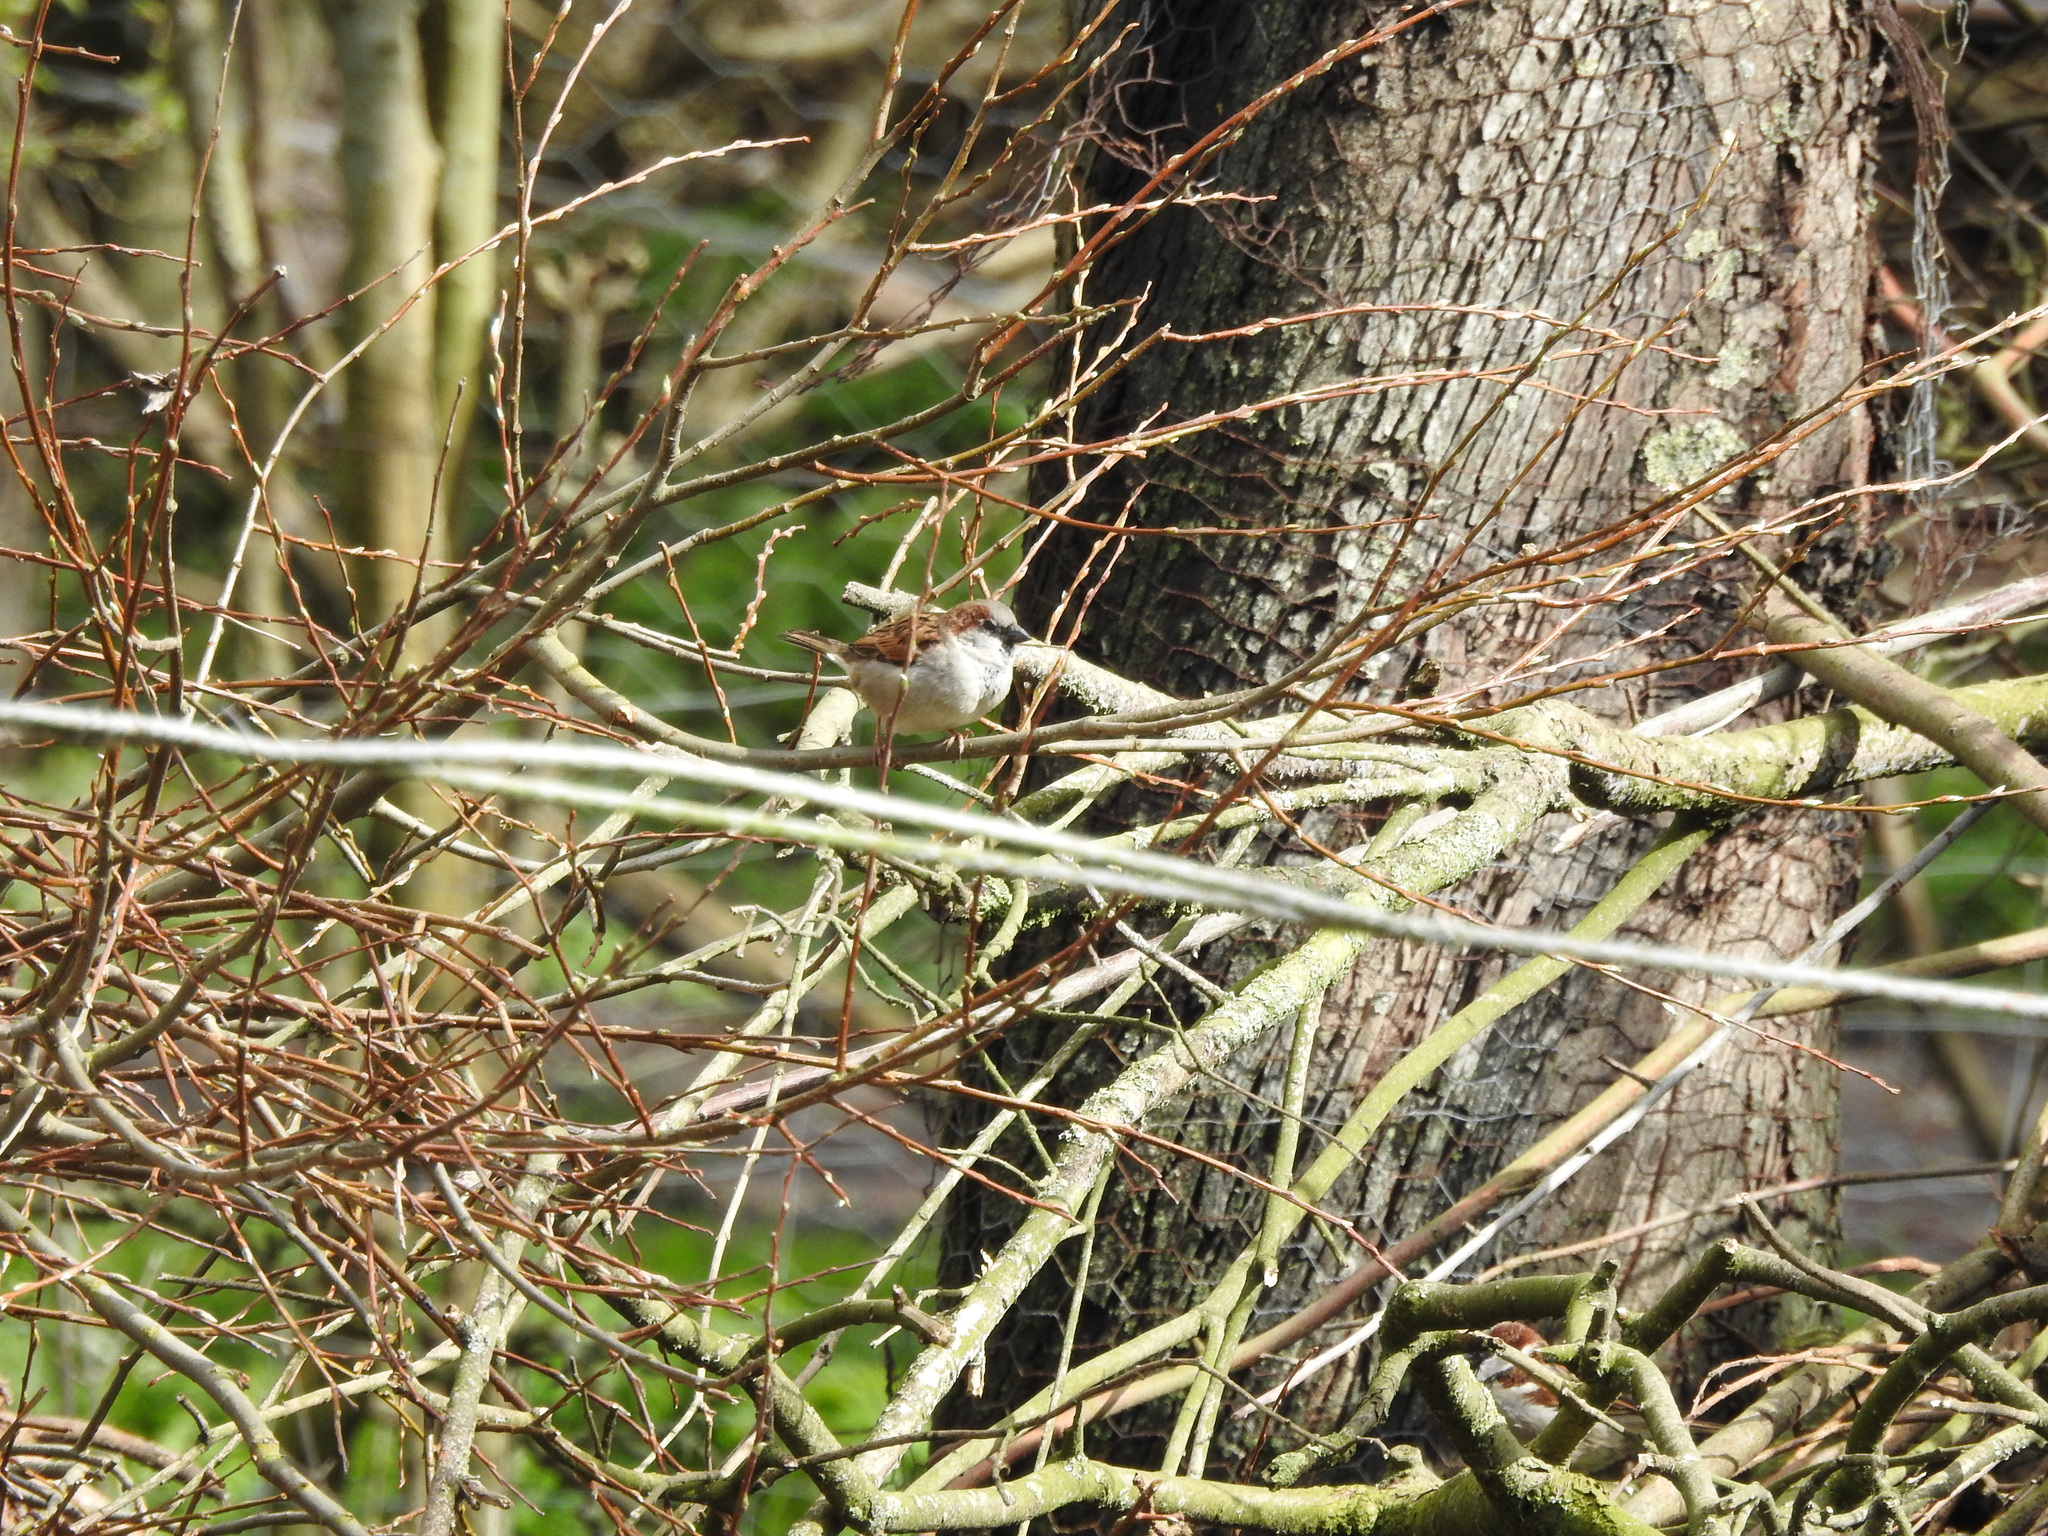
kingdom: Animalia
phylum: Chordata
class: Aves
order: Passeriformes
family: Passeridae
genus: Passer
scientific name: Passer domesticus
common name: House sparrow
